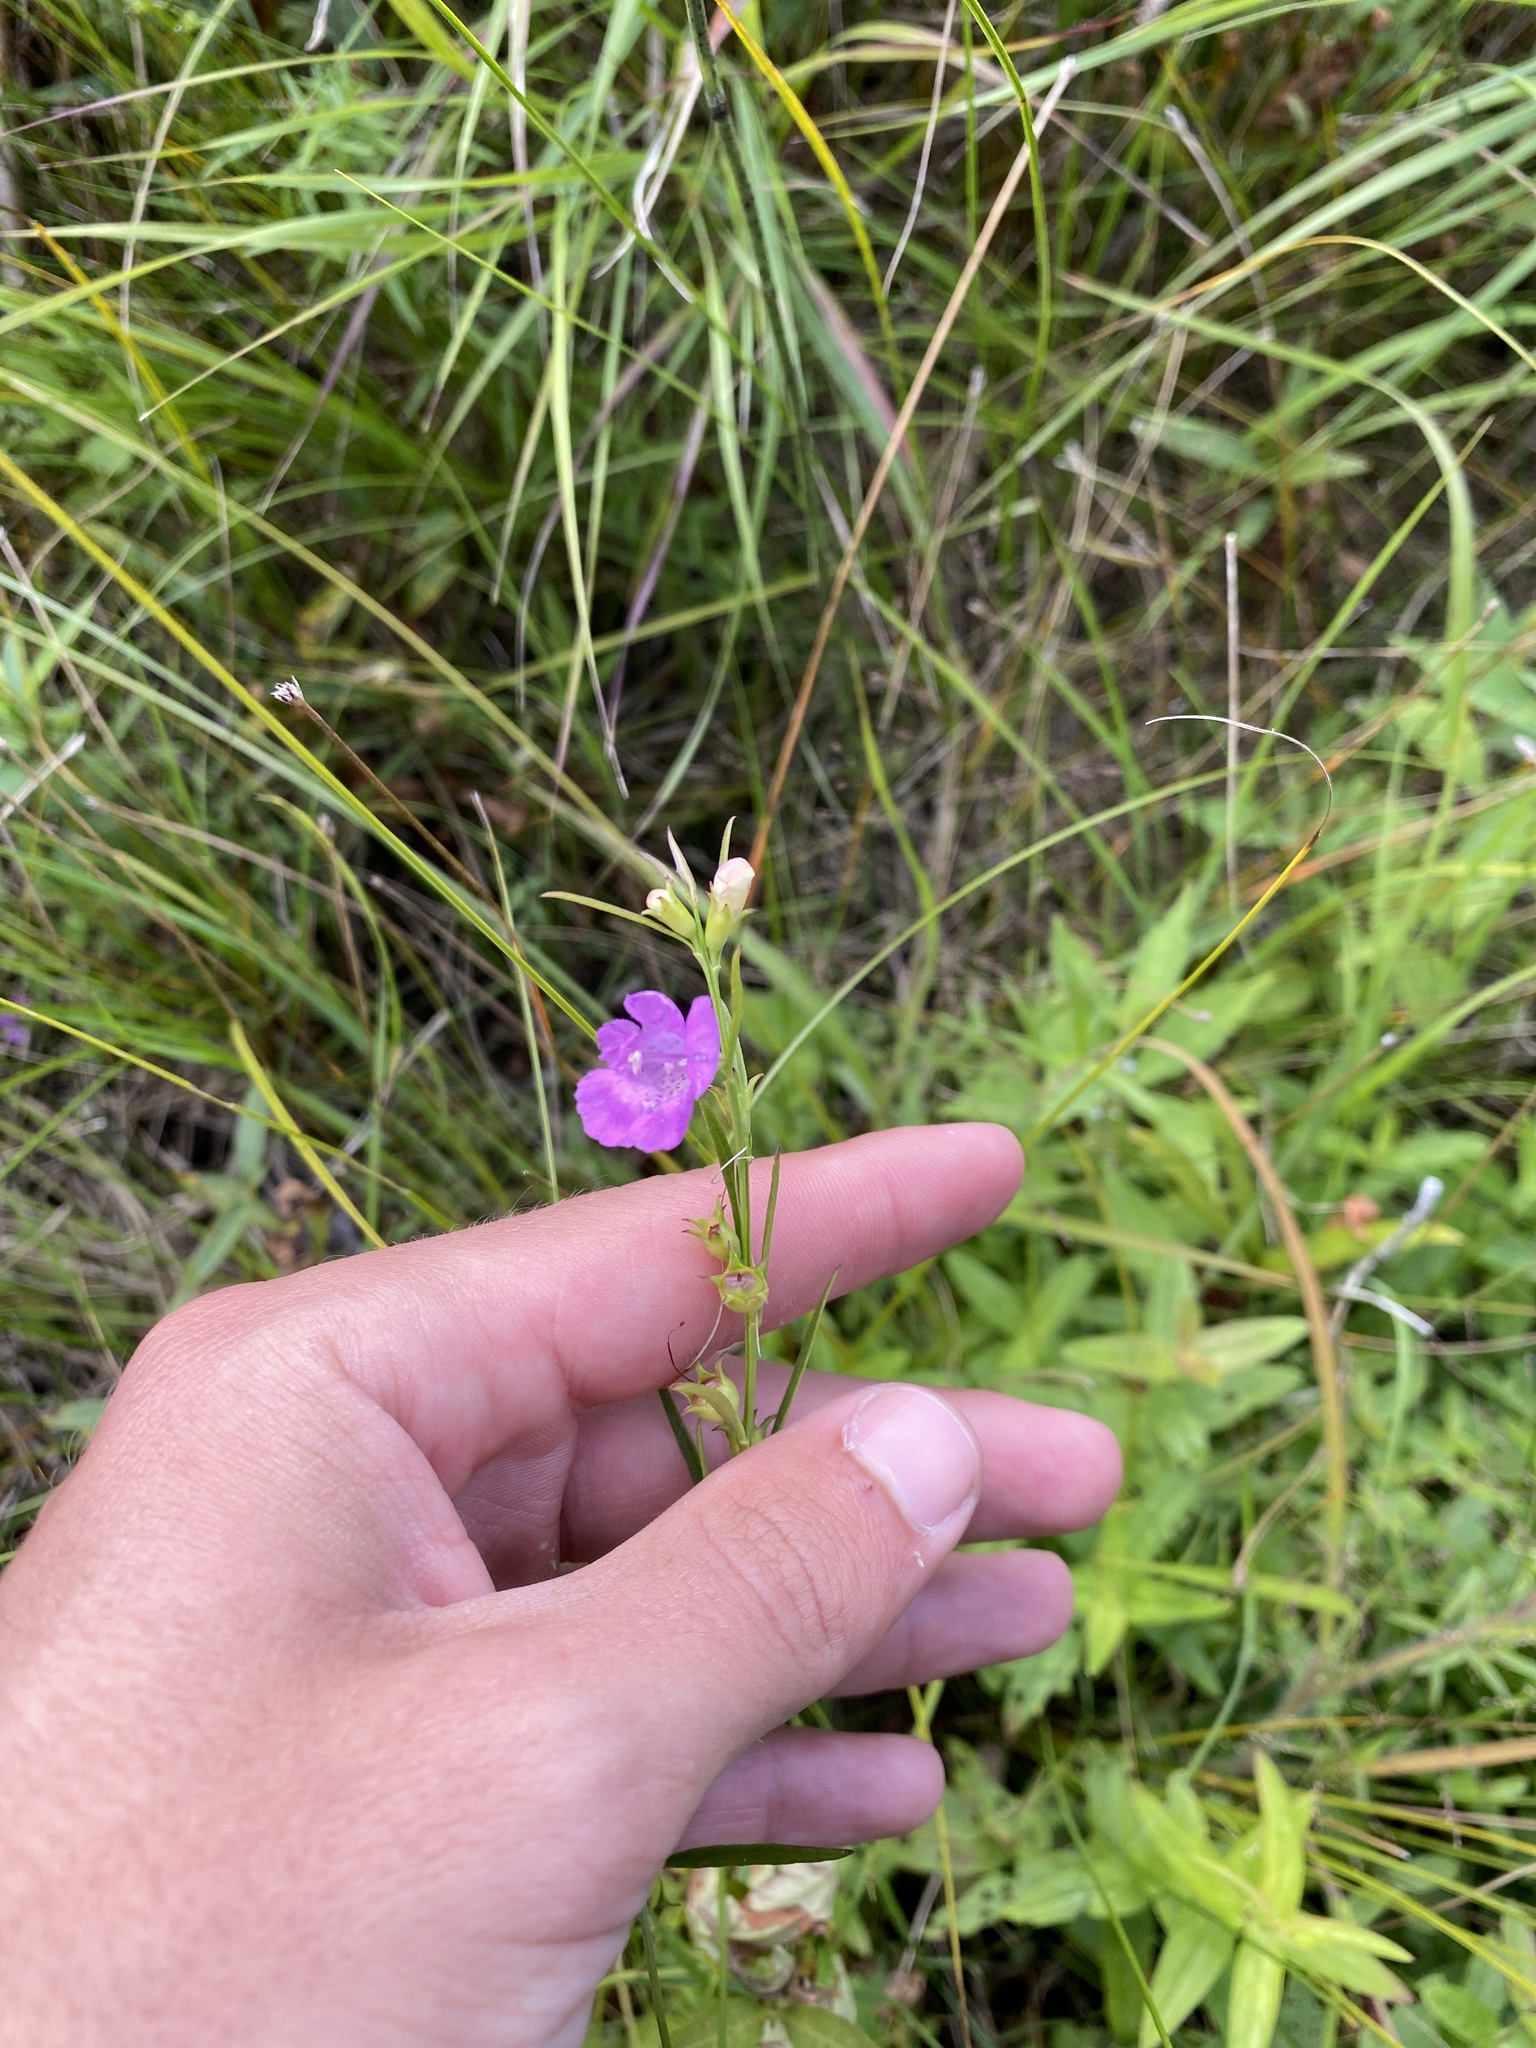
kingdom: Plantae
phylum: Tracheophyta
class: Magnoliopsida
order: Lamiales
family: Orobanchaceae
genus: Agalinis
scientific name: Agalinis purpurea
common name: Purple false foxglove
